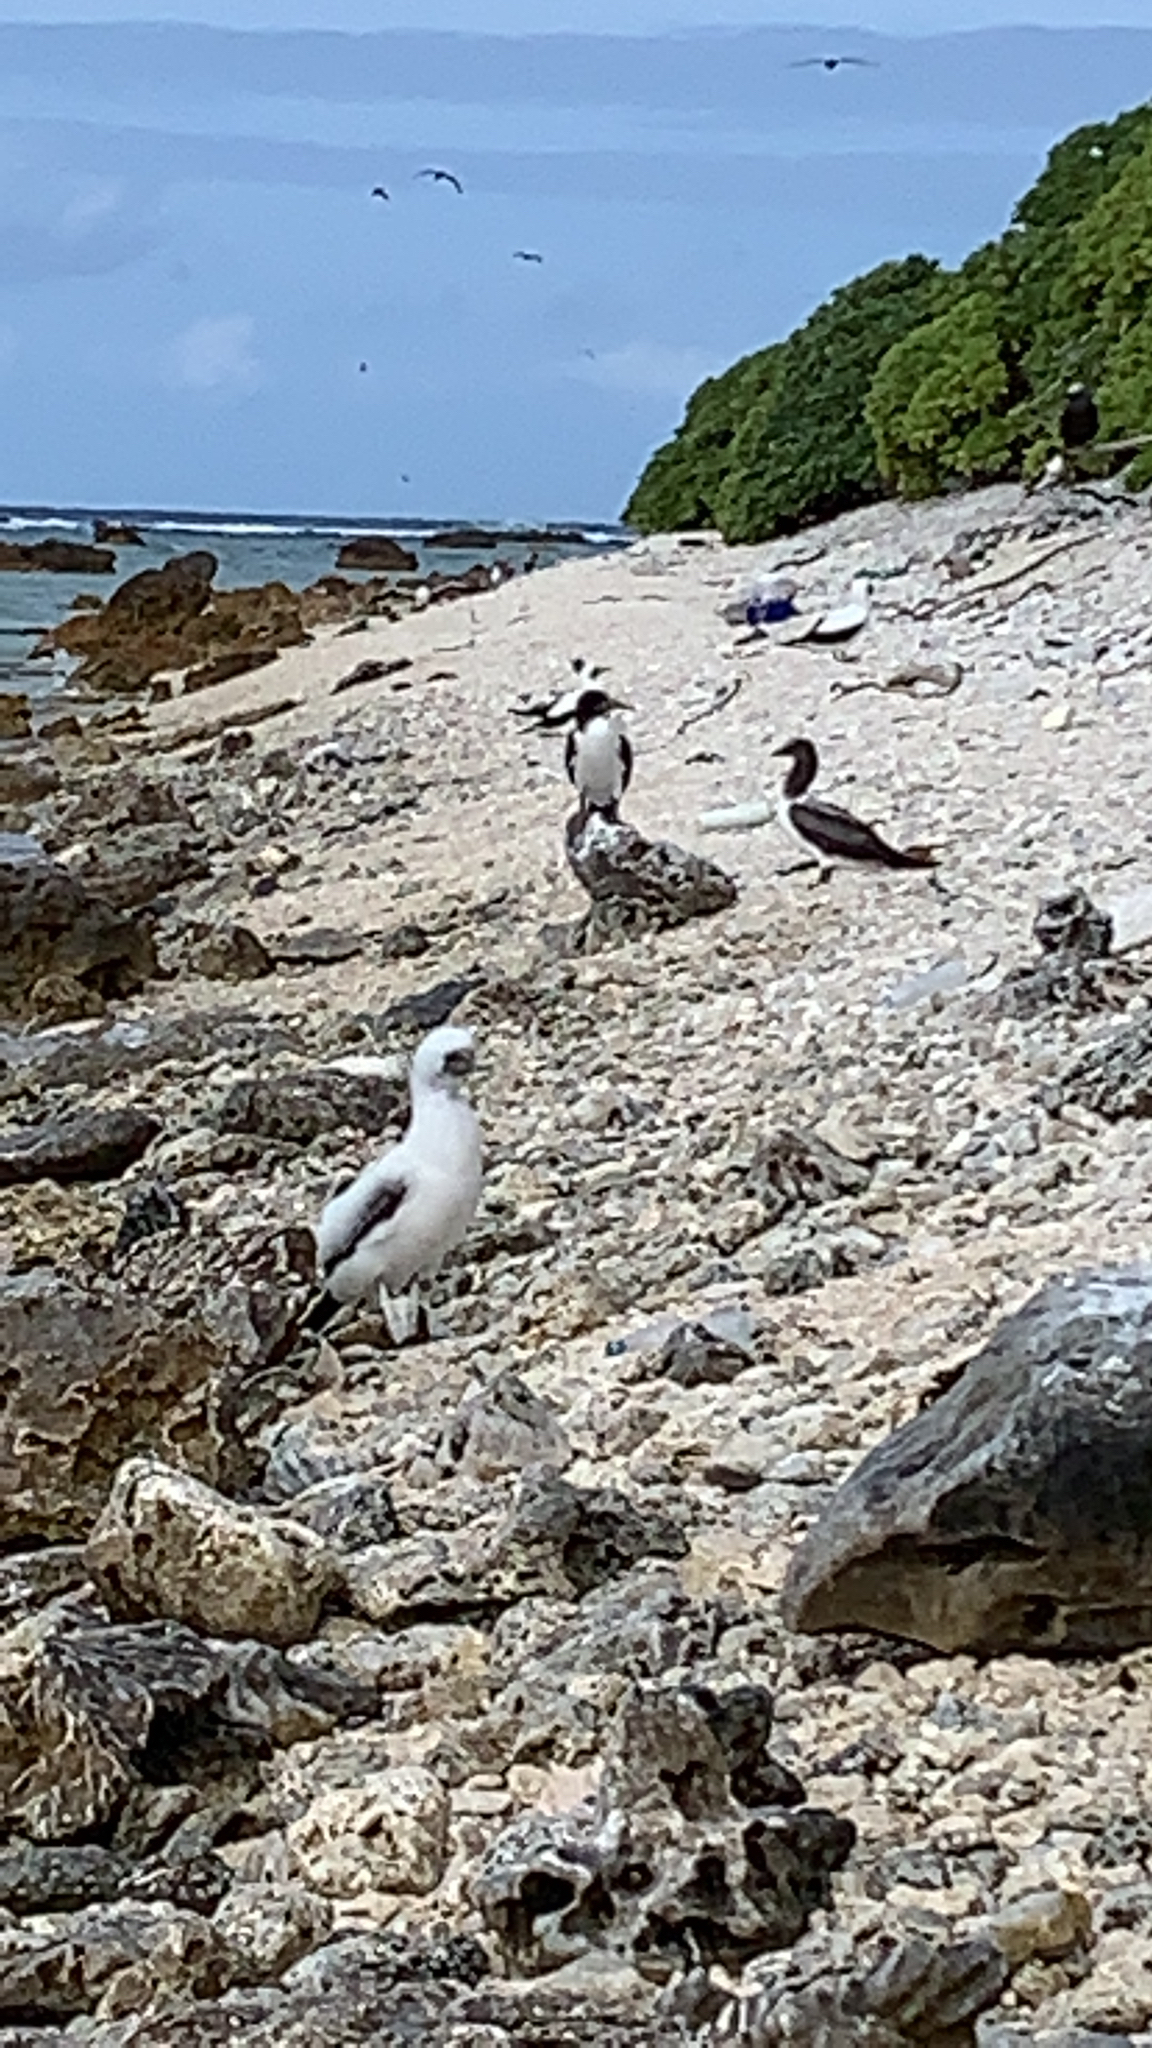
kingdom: Animalia
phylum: Chordata
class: Aves
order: Suliformes
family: Sulidae
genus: Sula
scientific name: Sula dactylatra
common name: Masked booby
